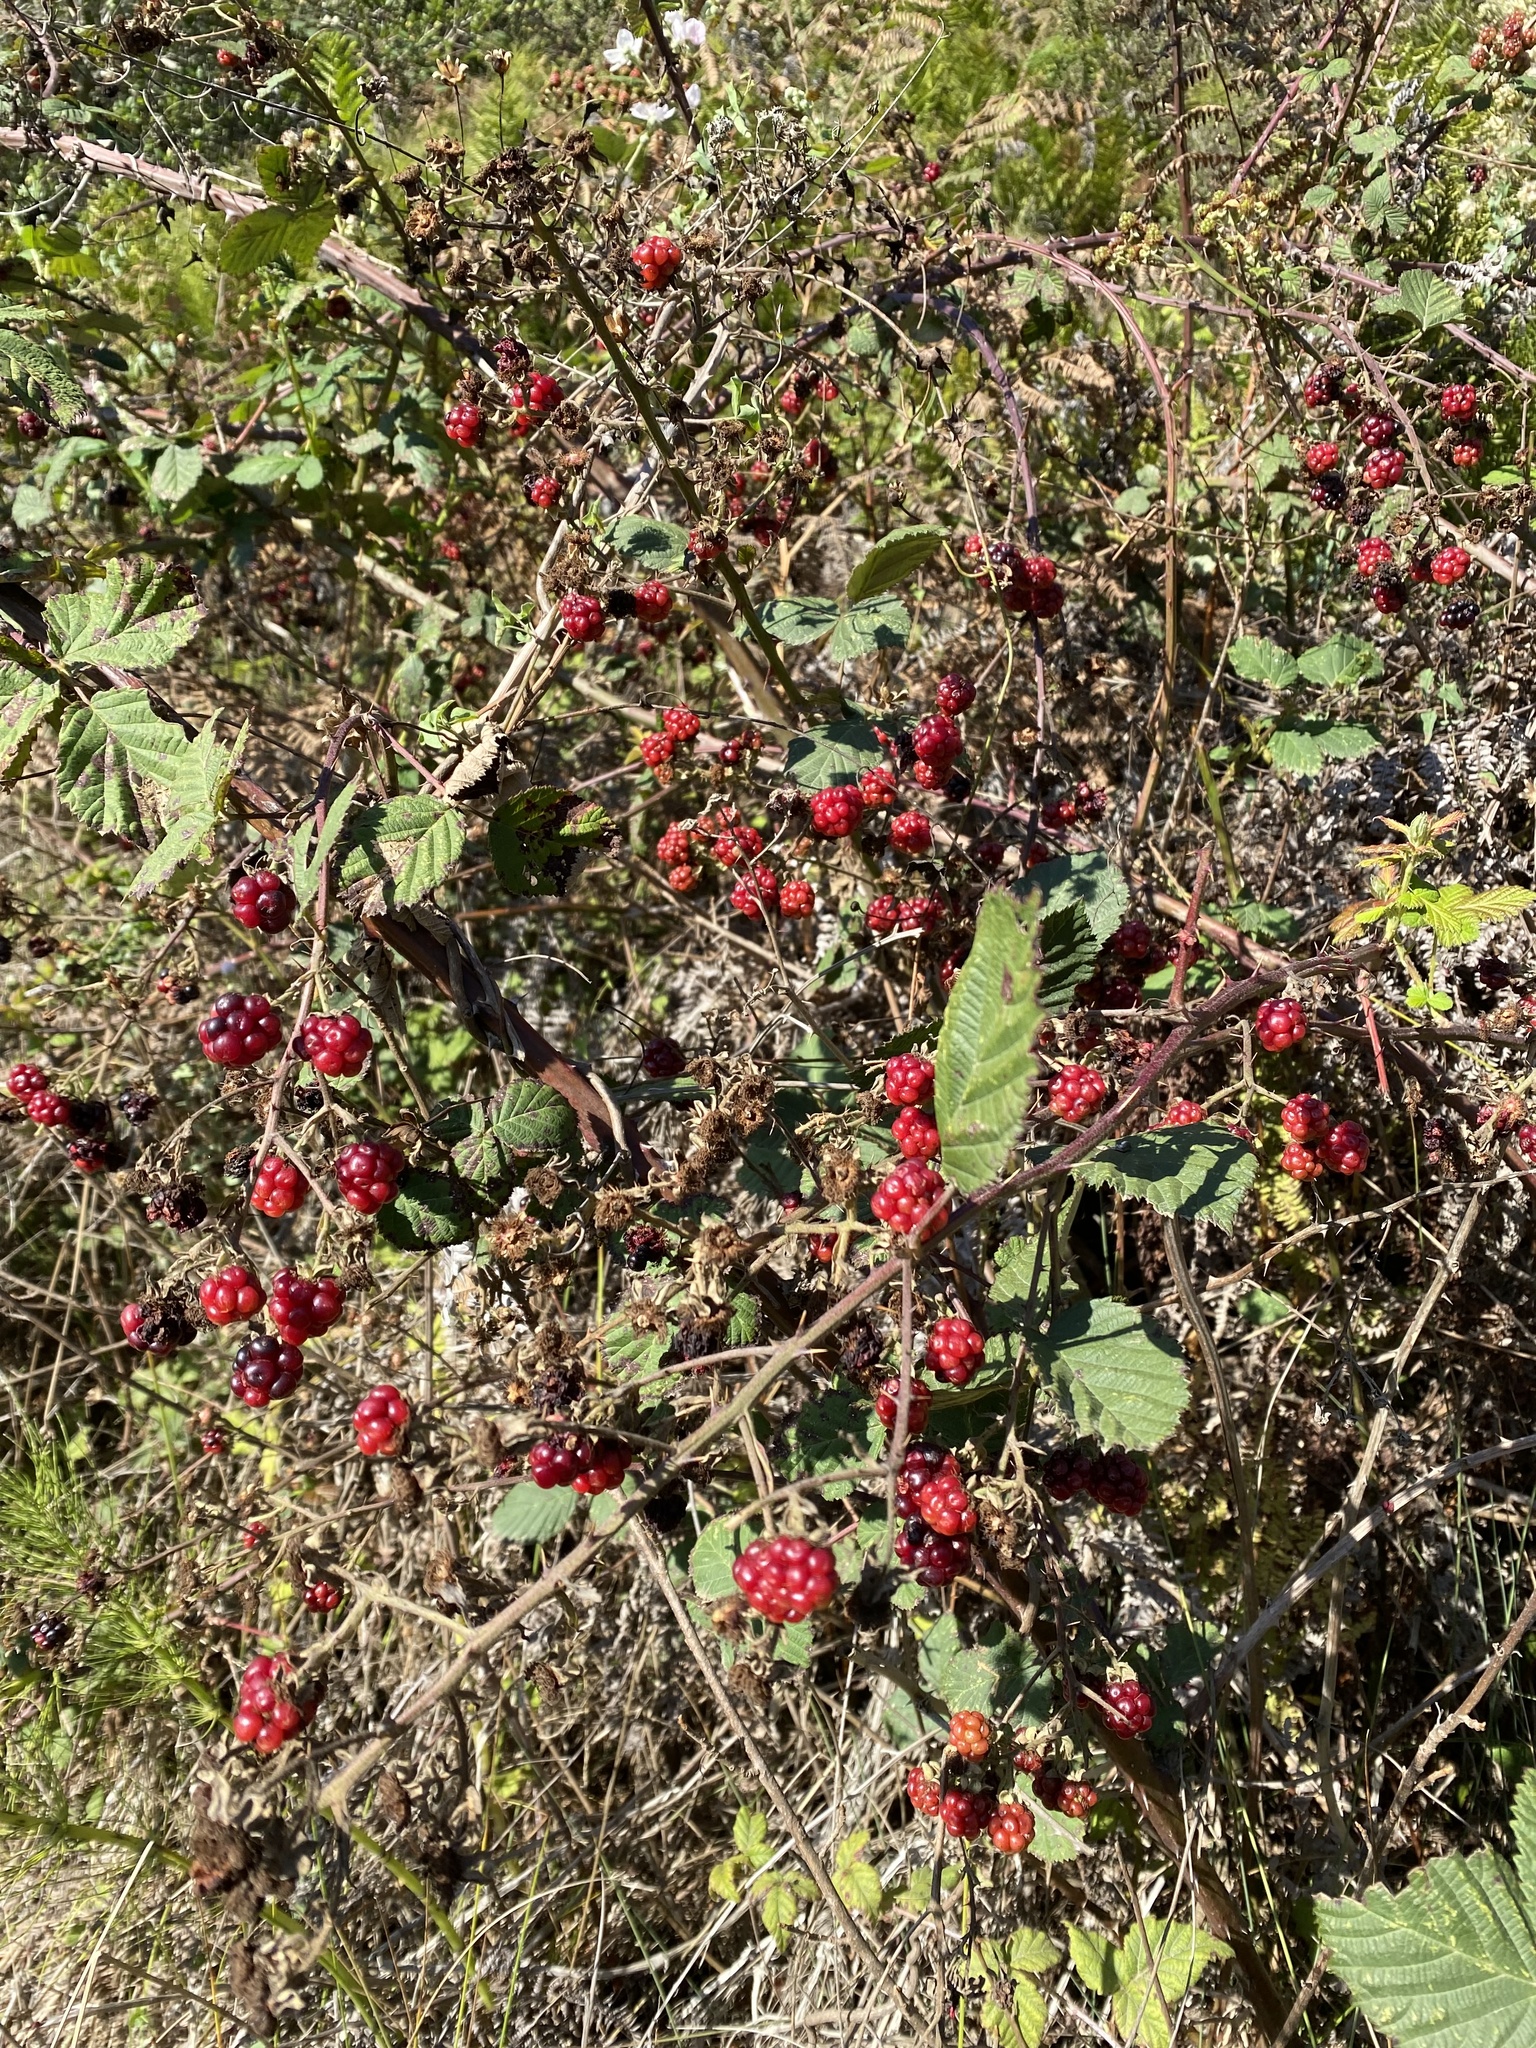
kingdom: Plantae
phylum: Tracheophyta
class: Magnoliopsida
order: Rosales
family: Rosaceae
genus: Rubus
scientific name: Rubus armeniacus
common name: Himalayan blackberry
